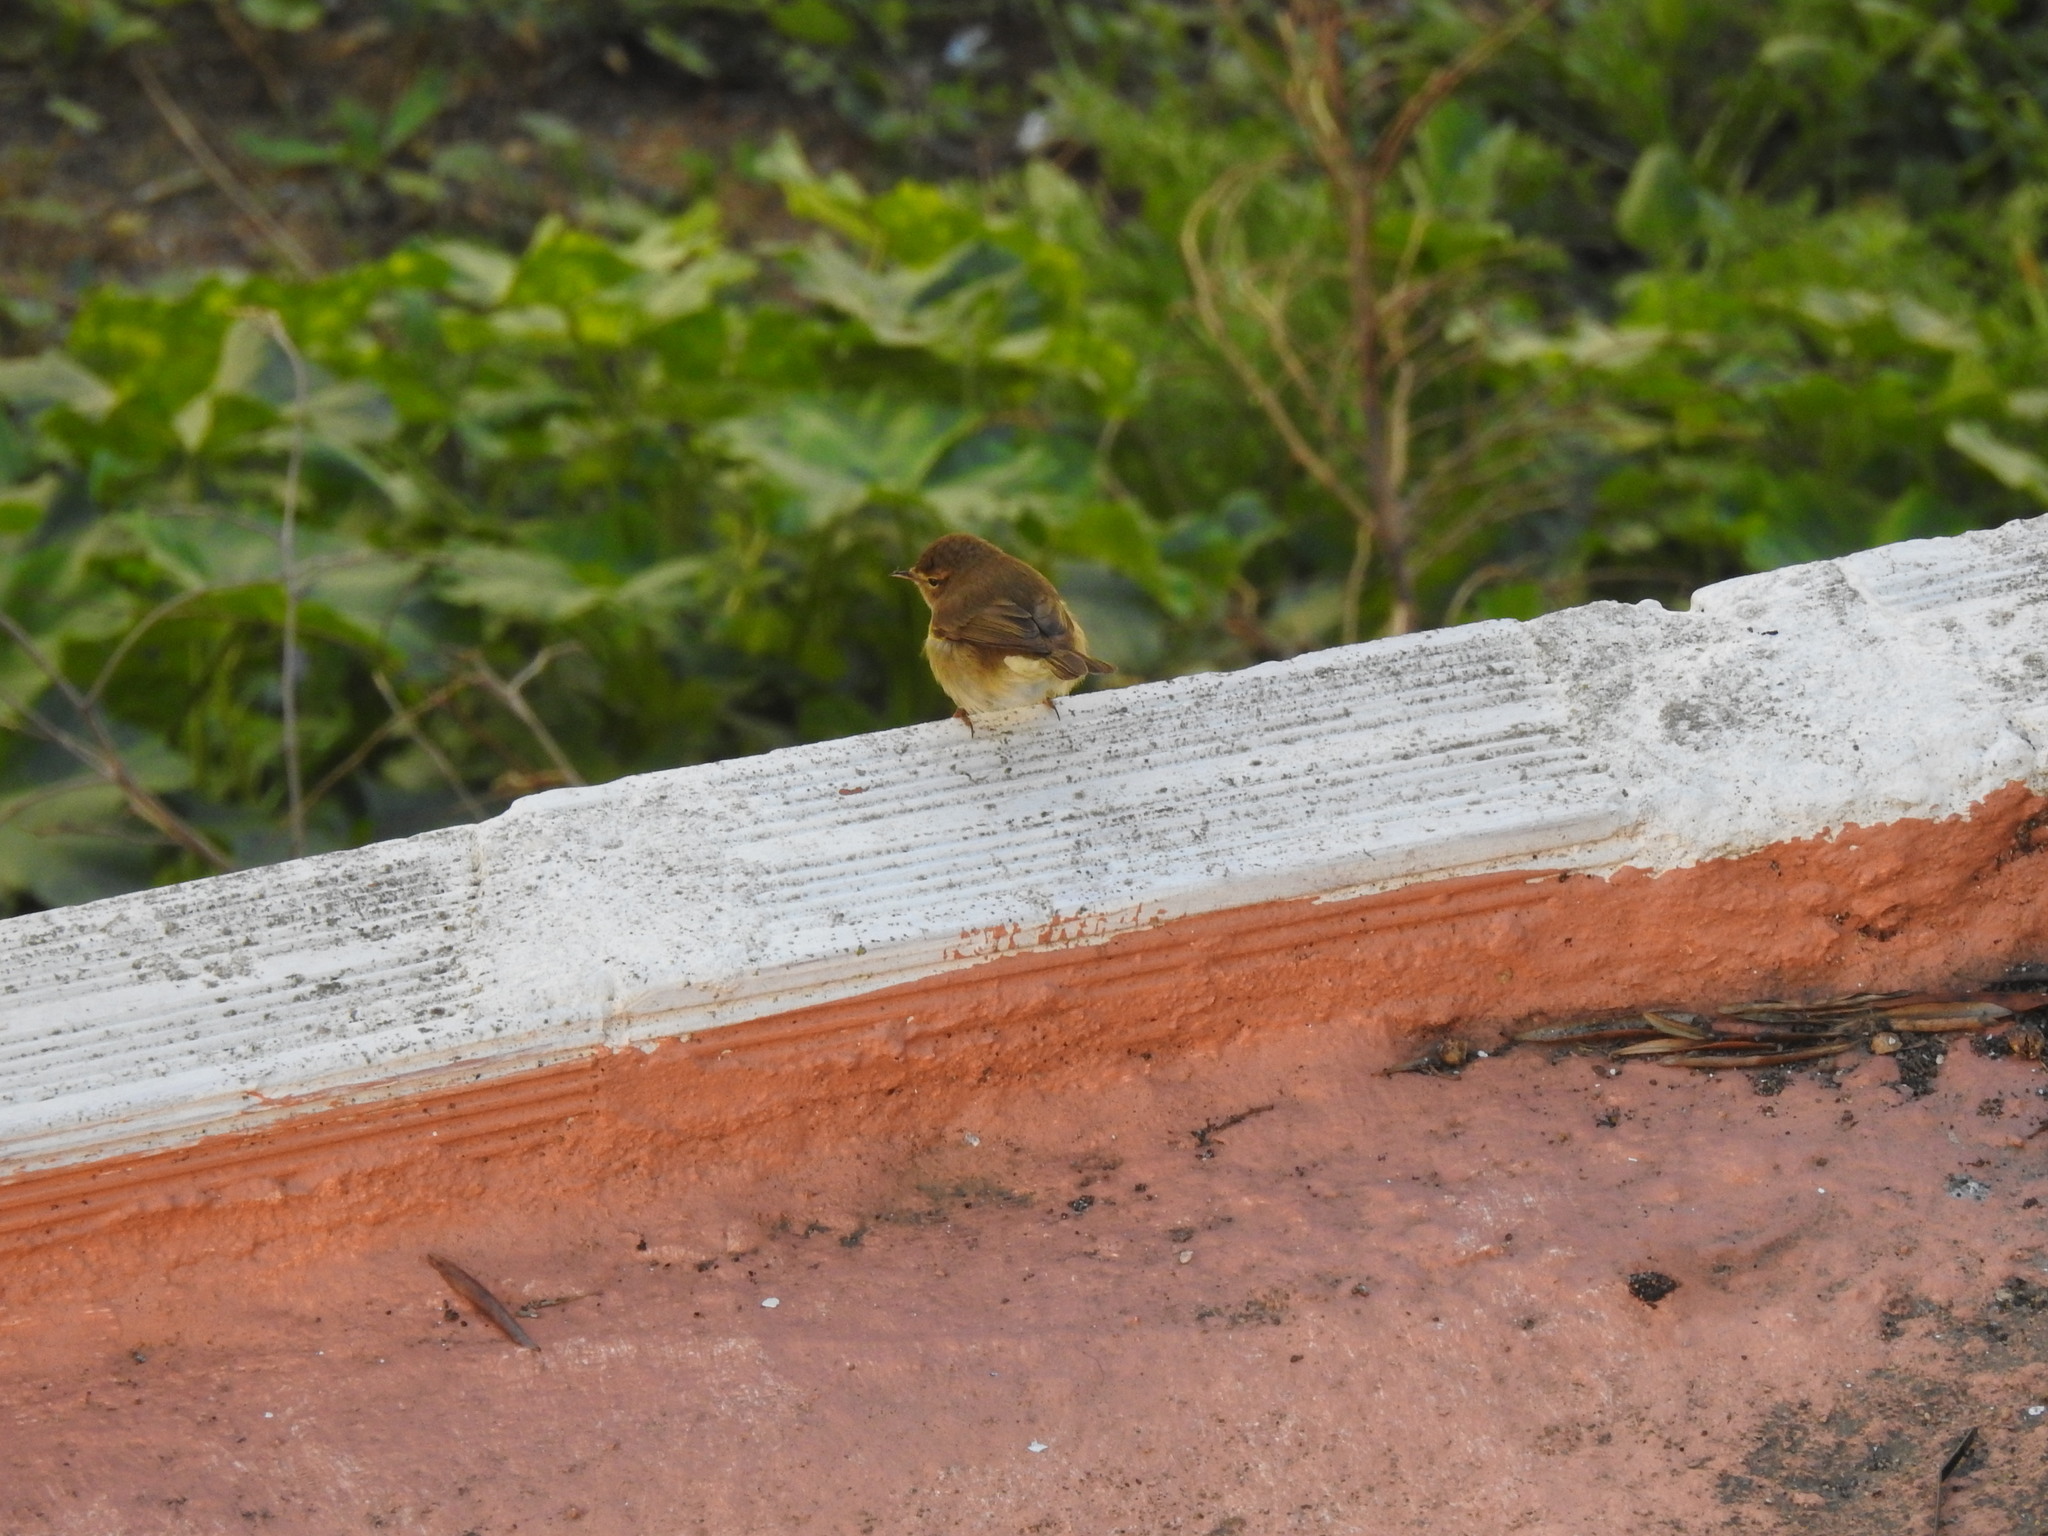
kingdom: Animalia
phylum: Chordata
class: Aves
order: Passeriformes
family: Phylloscopidae
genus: Phylloscopus
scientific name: Phylloscopus collybita
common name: Common chiffchaff
